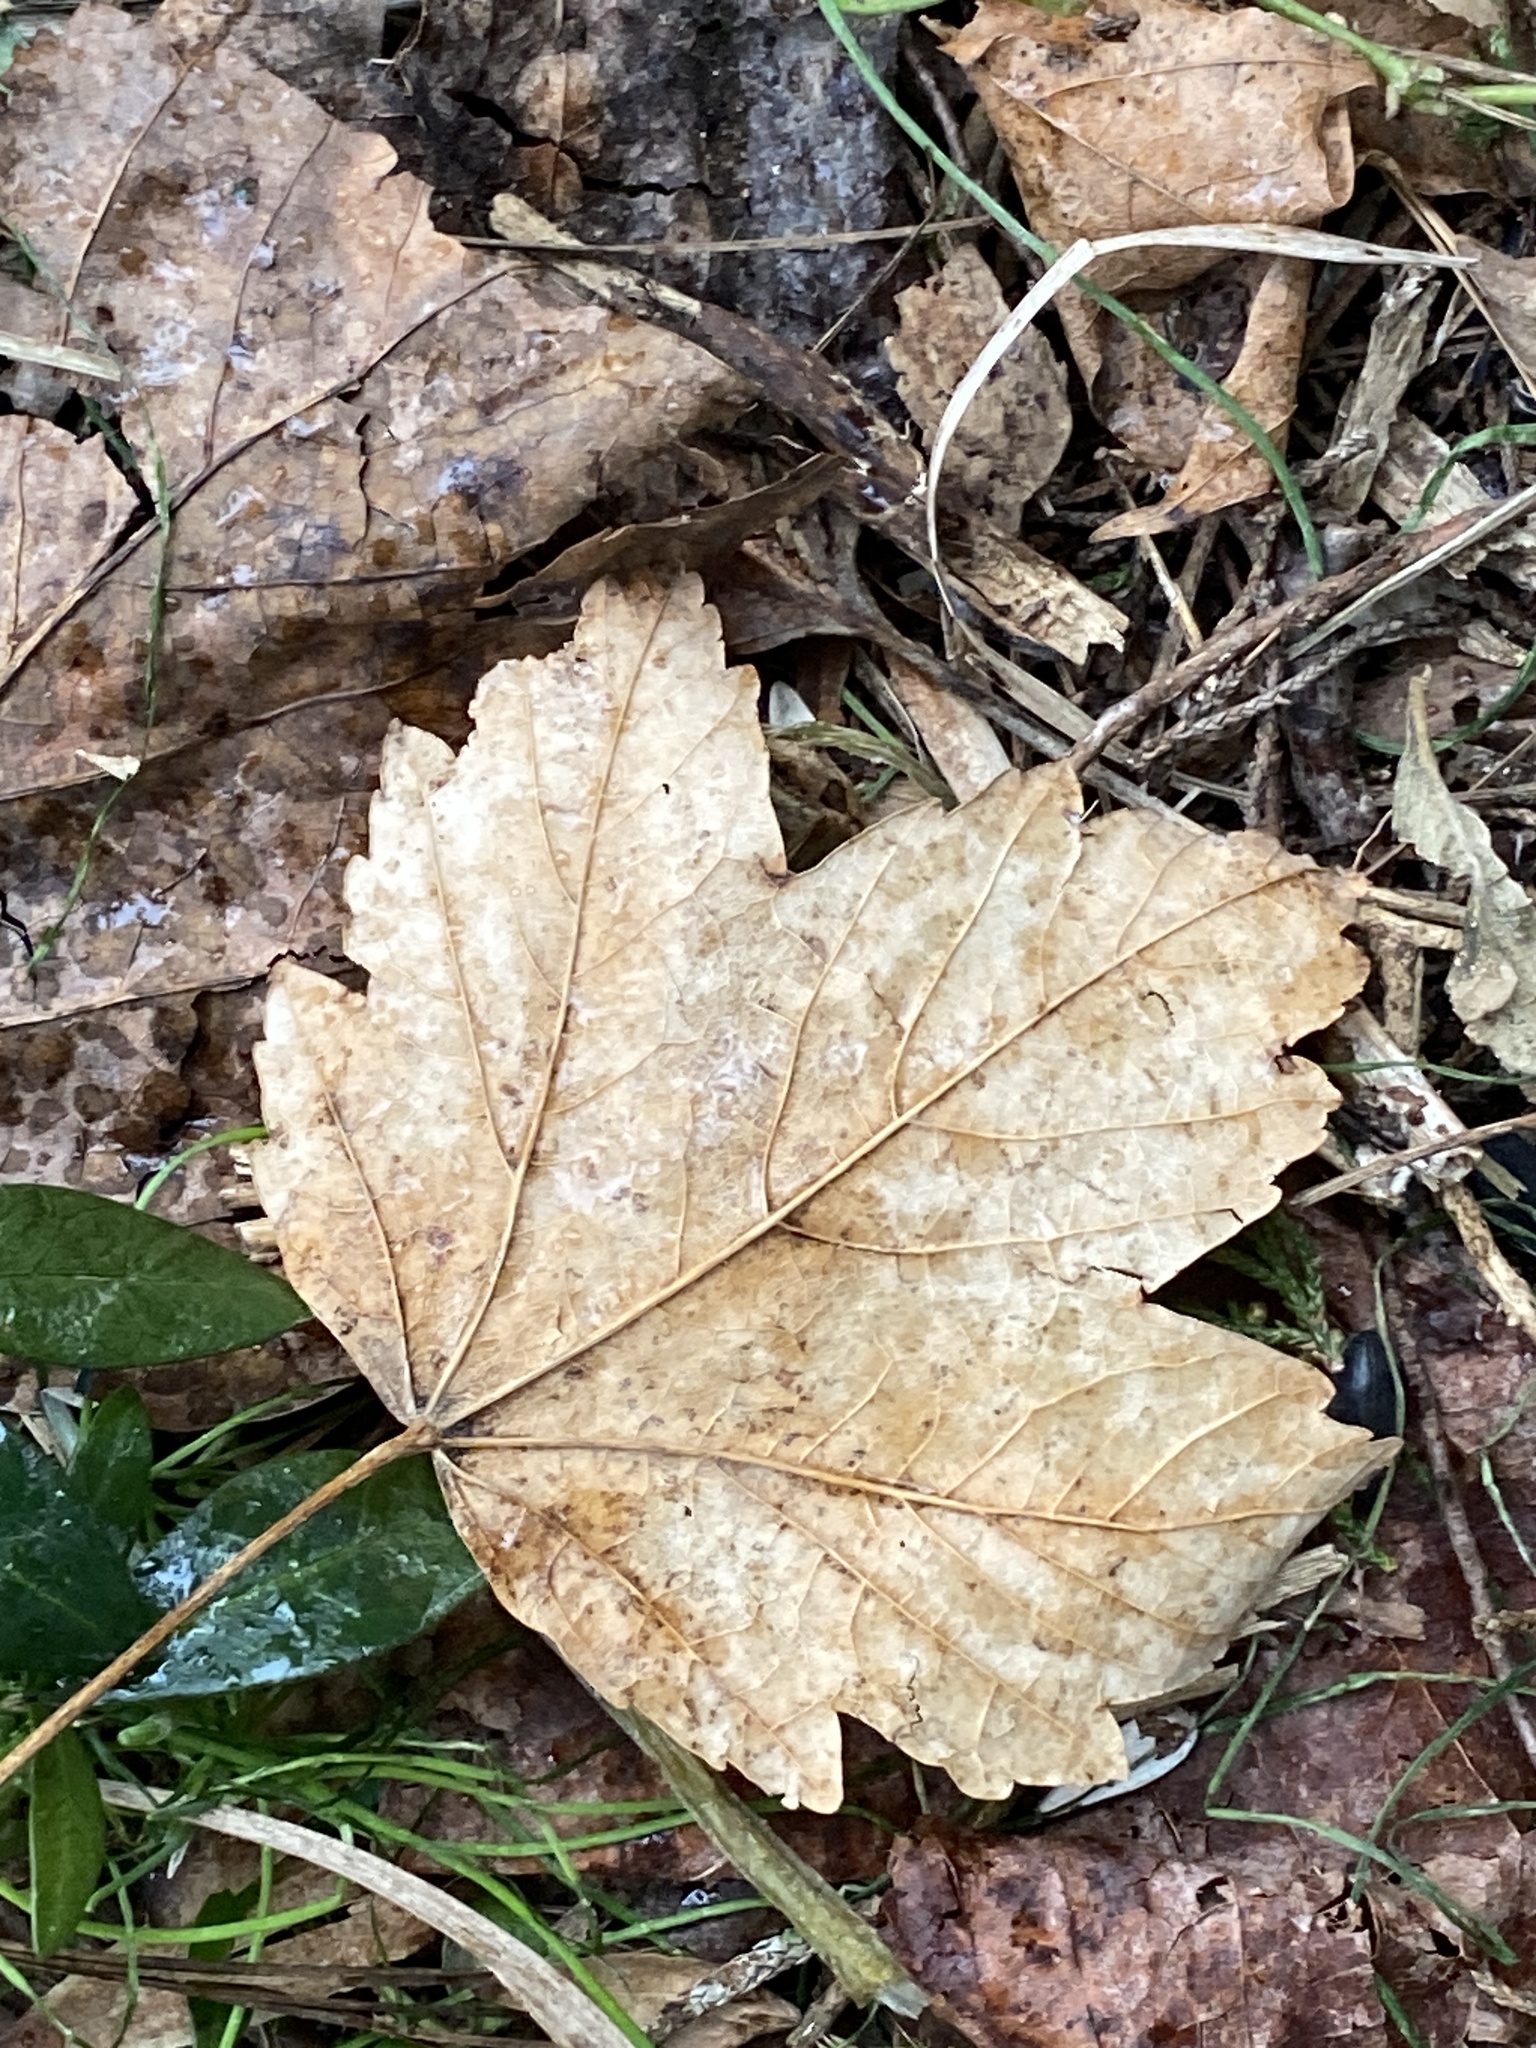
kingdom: Plantae
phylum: Tracheophyta
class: Magnoliopsida
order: Sapindales
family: Sapindaceae
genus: Acer
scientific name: Acer pseudoplatanus
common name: Sycamore
